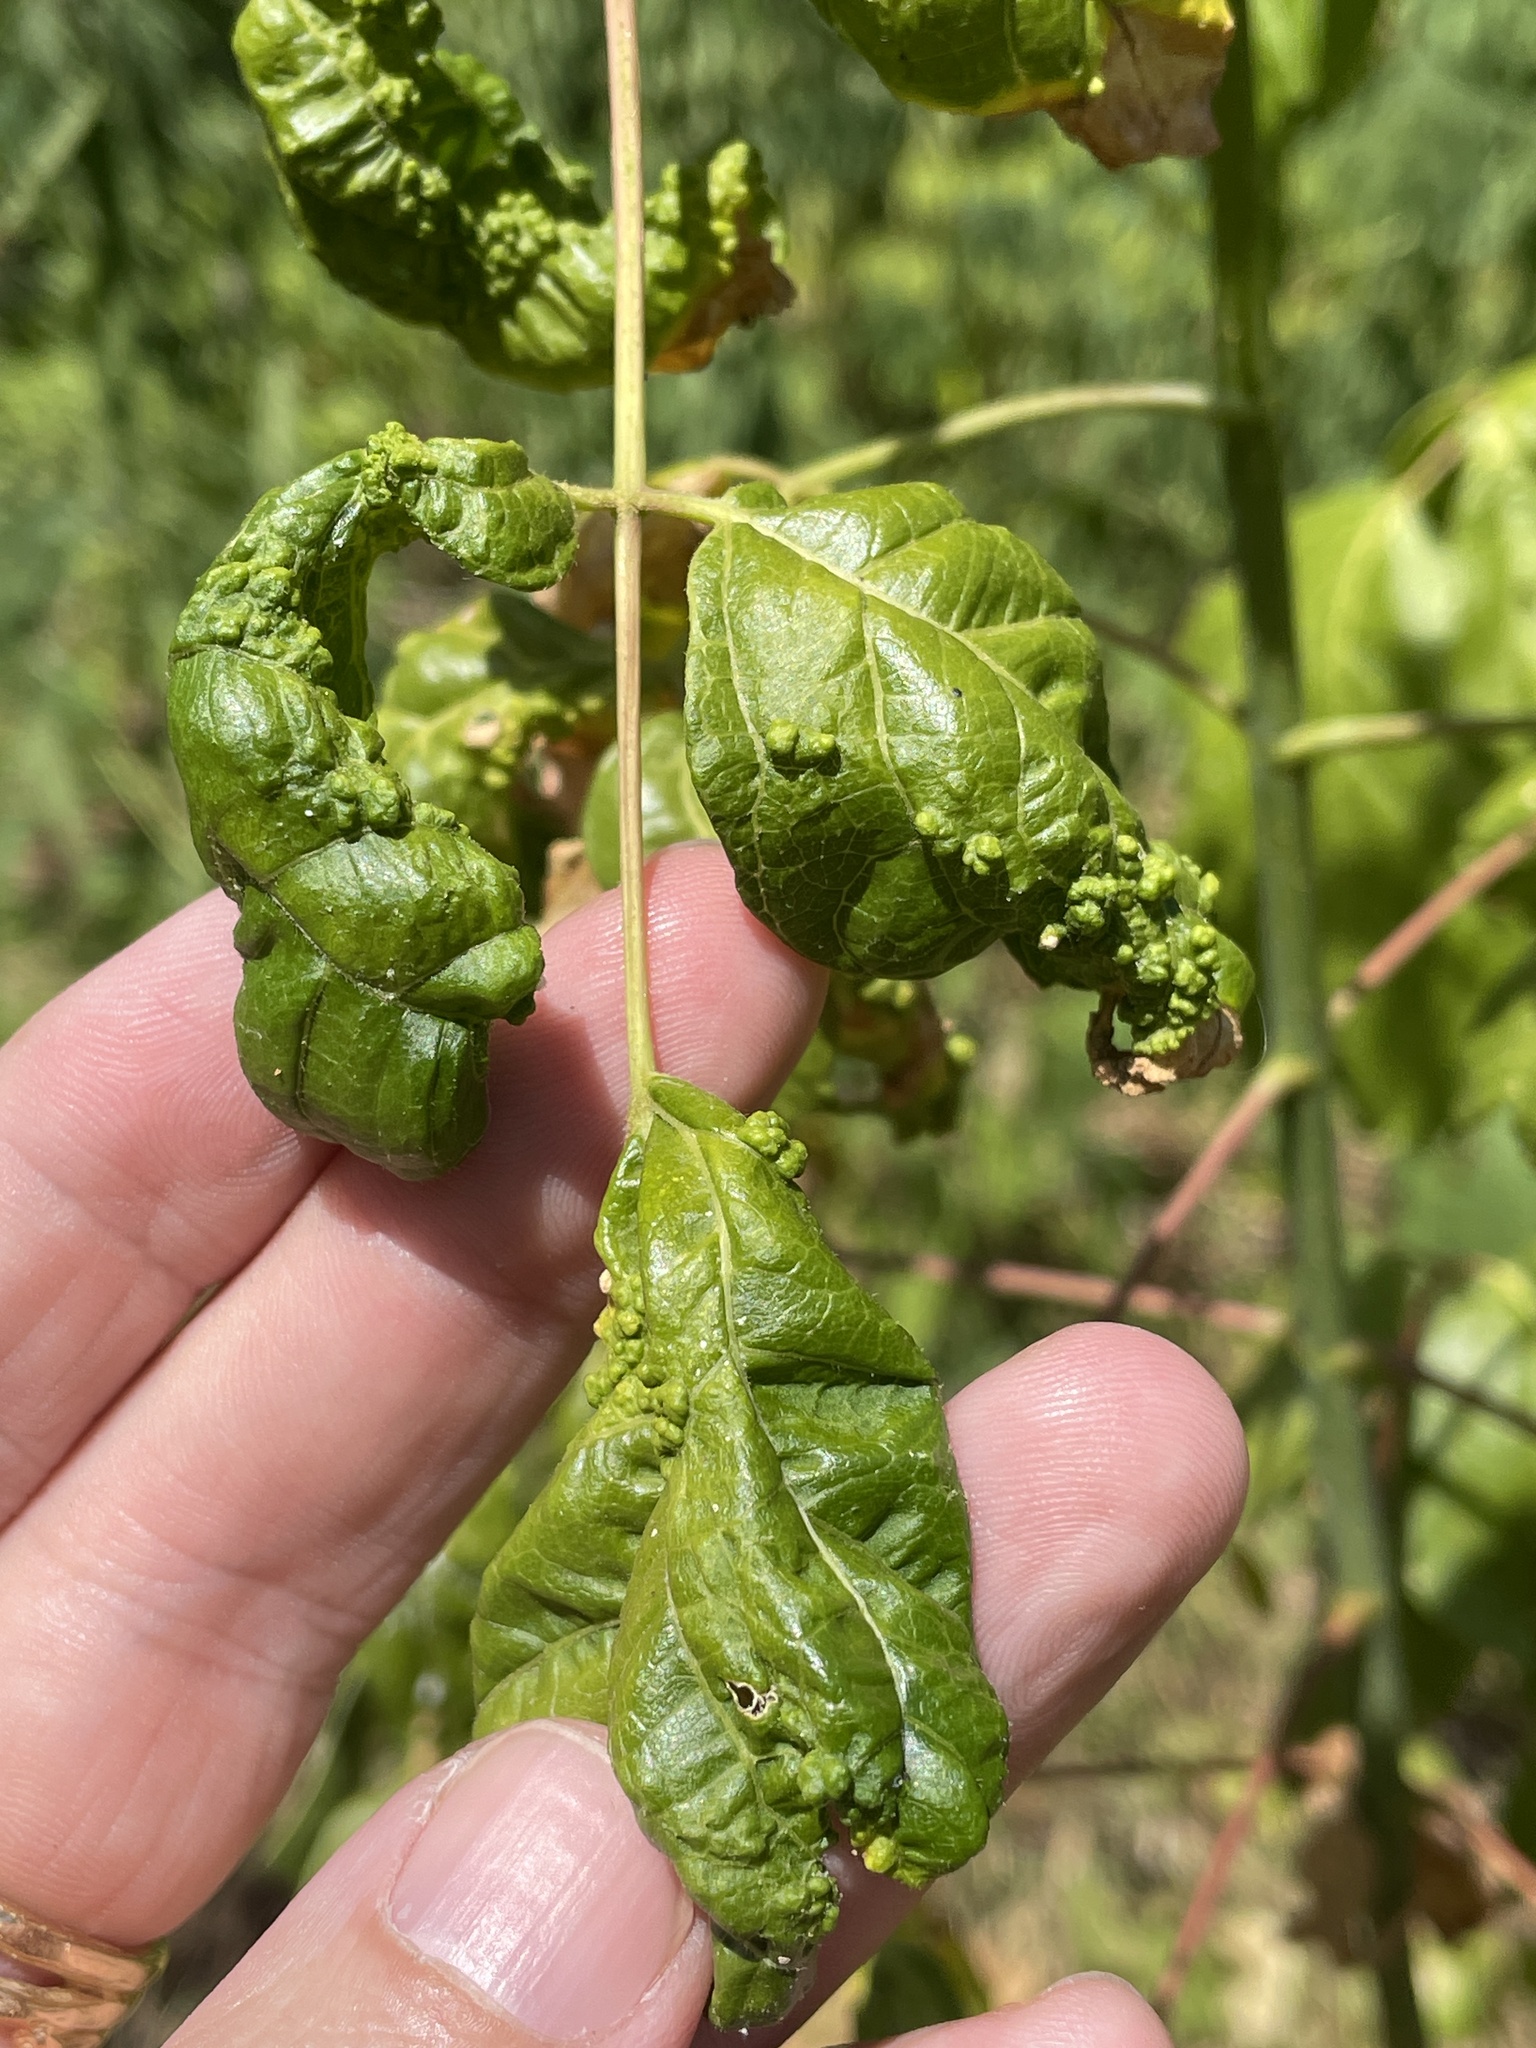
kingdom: Animalia
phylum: Arthropoda
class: Arachnida
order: Trombidiformes
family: Eriophyidae
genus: Aceria
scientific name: Aceria
